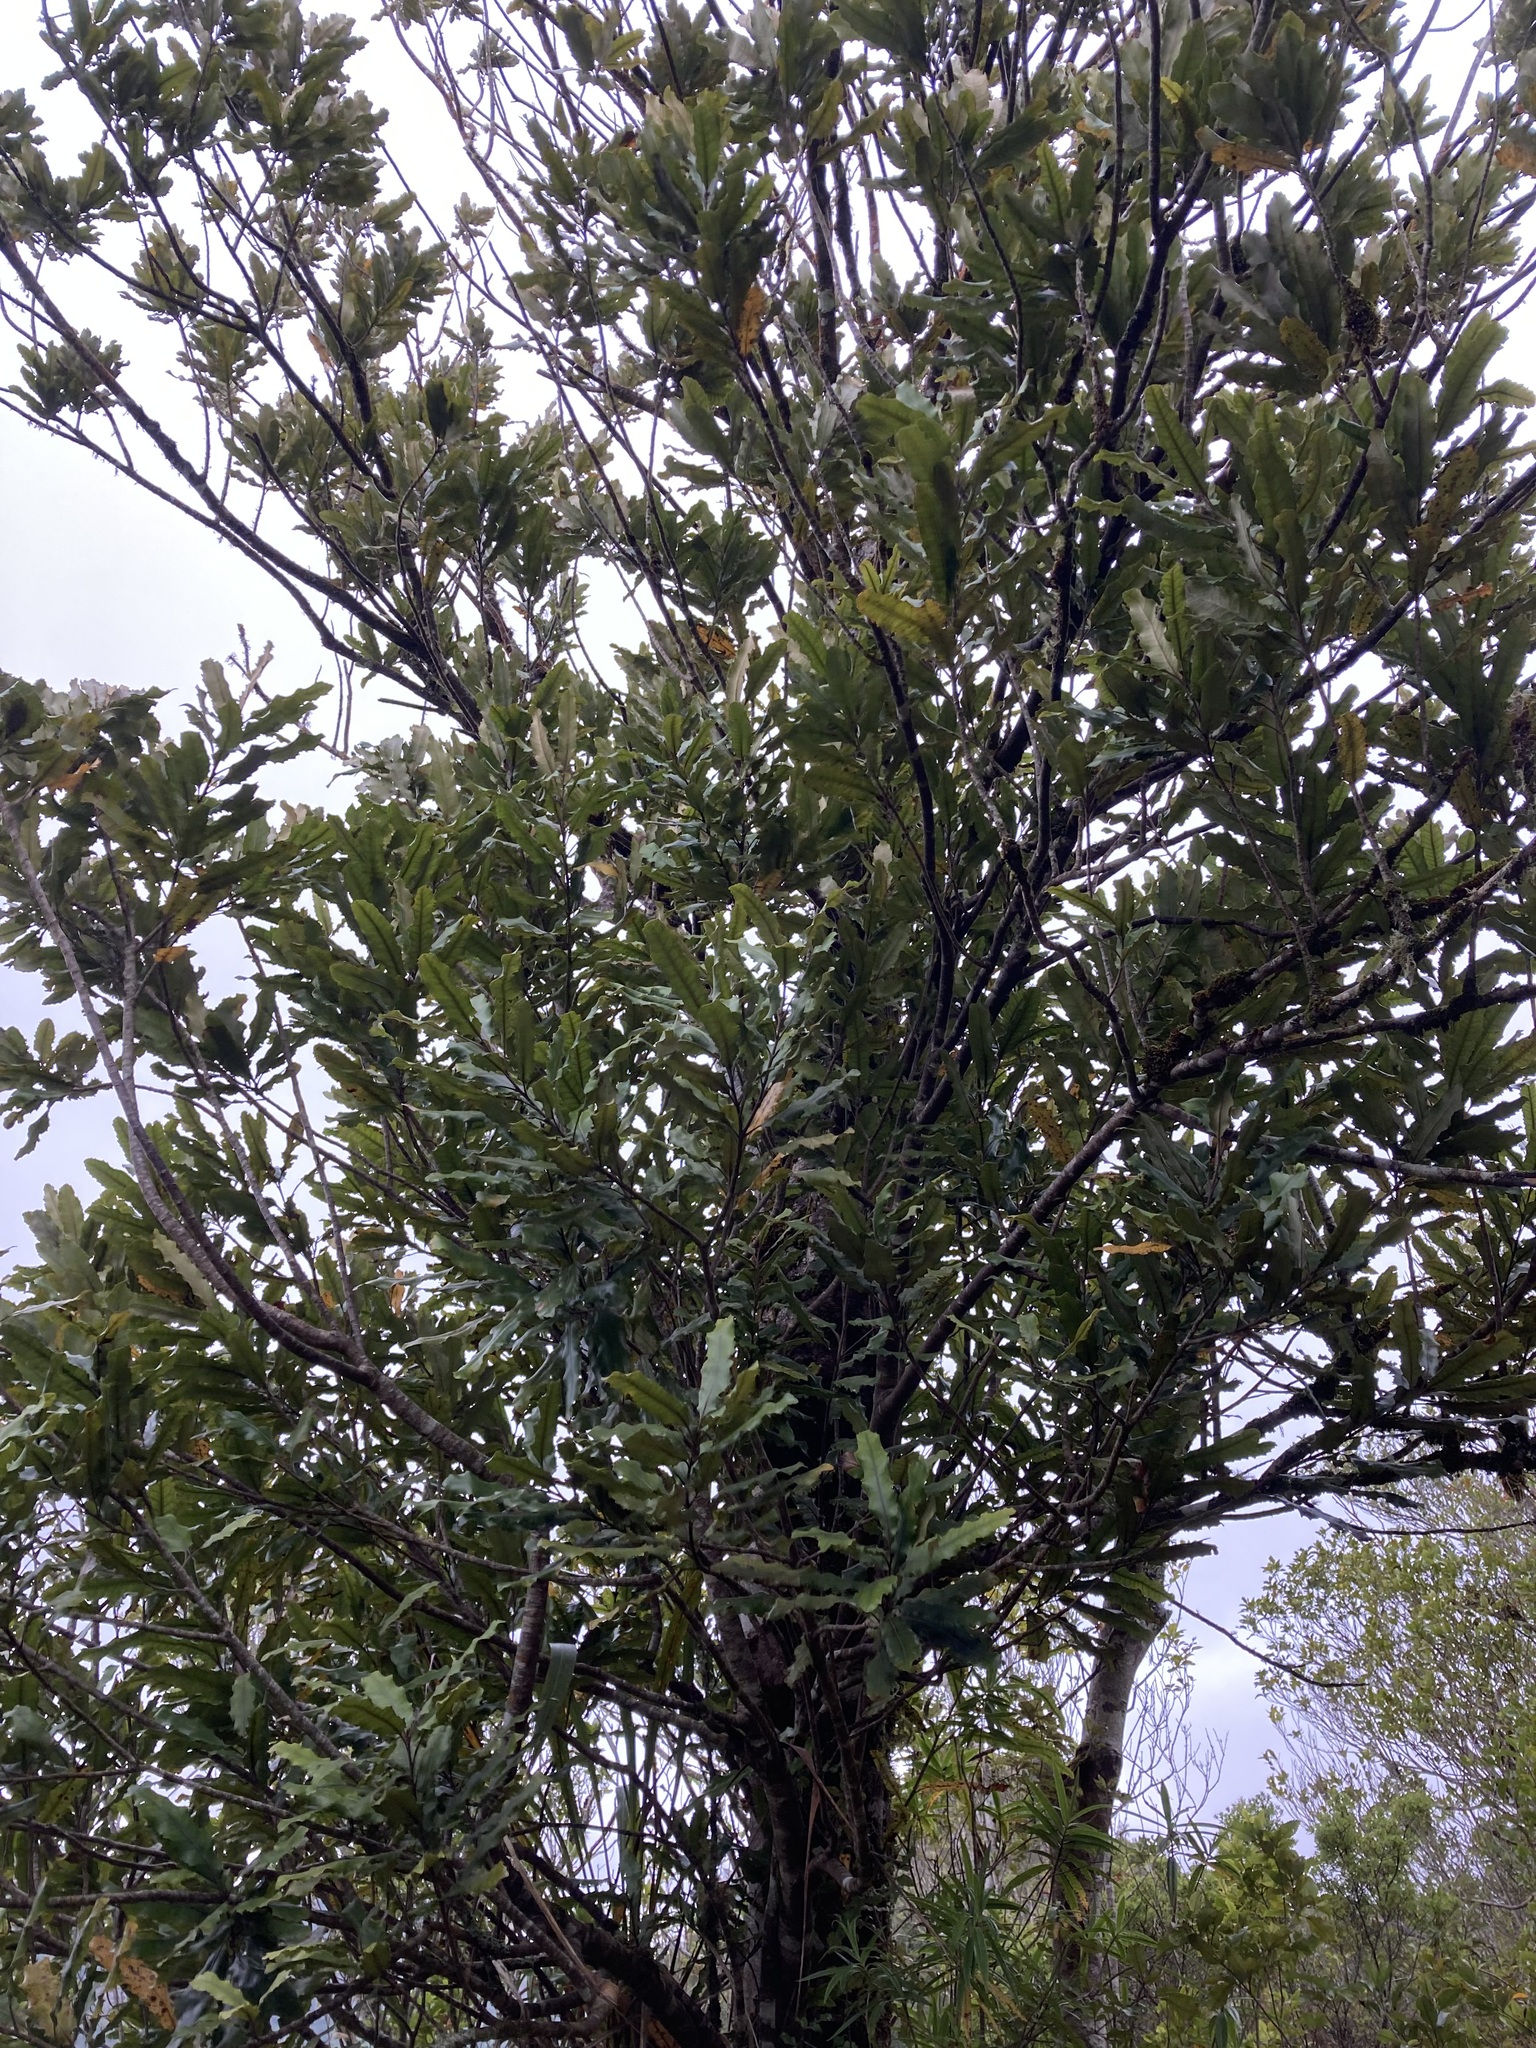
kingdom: Plantae
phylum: Tracheophyta
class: Magnoliopsida
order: Proteales
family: Proteaceae
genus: Knightia
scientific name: Knightia excelsa
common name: New zealand-honeysuckle
